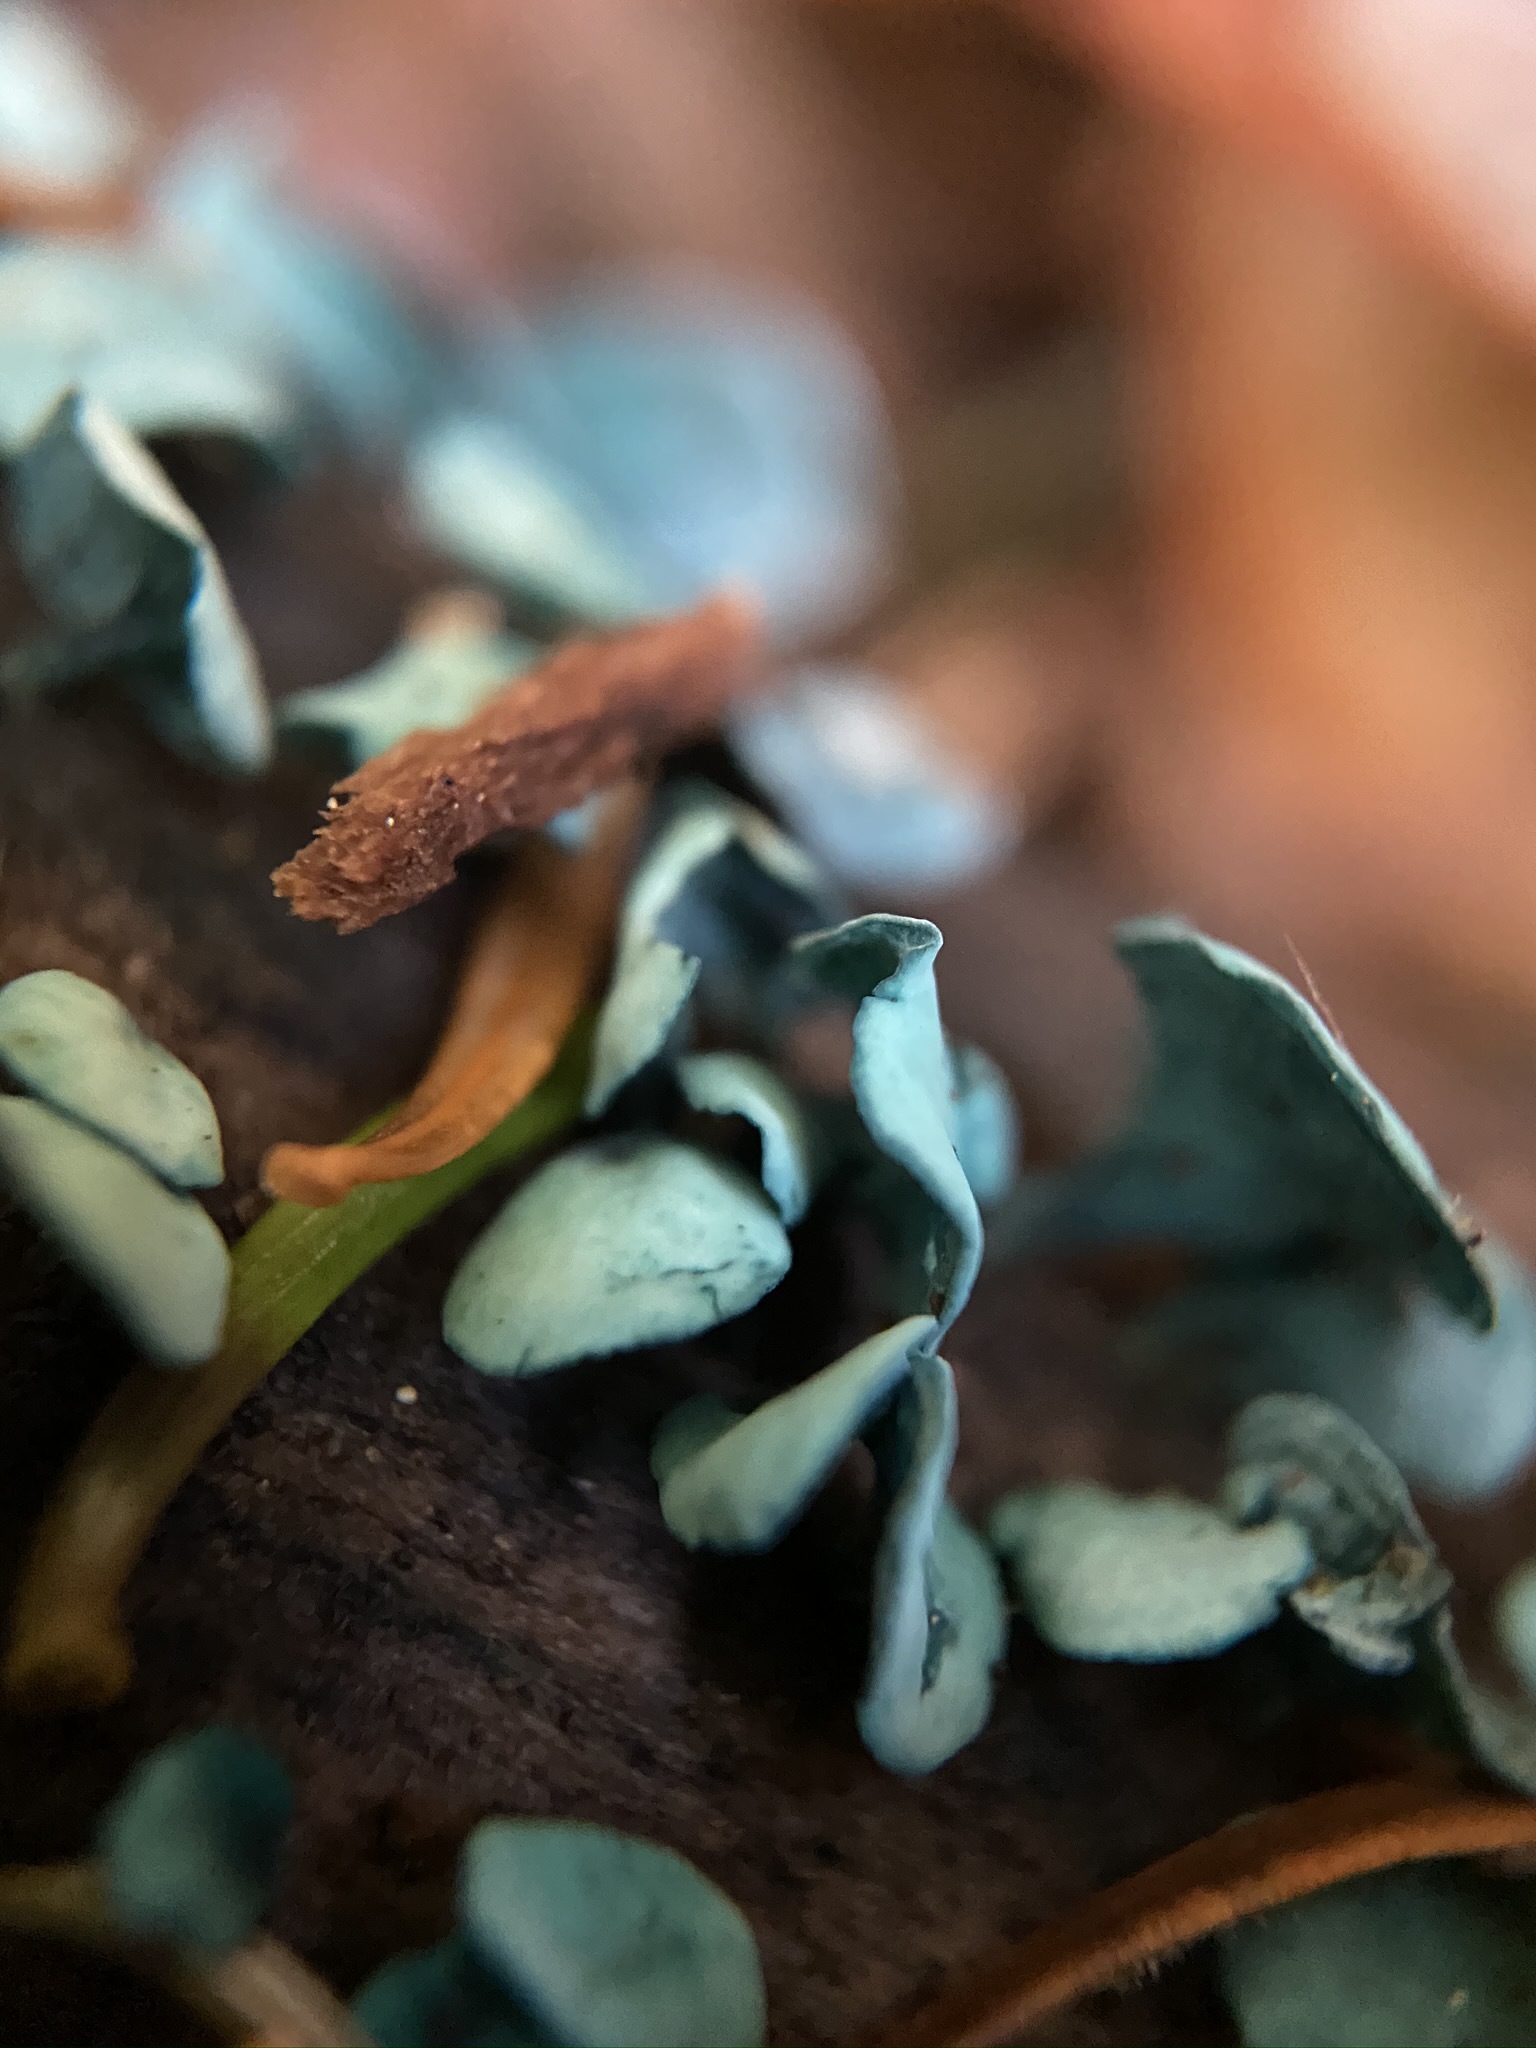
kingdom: Fungi
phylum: Ascomycota
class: Leotiomycetes
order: Helotiales
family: Chlorociboriaceae
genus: Chlorociboria
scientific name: Chlorociboria aeruginascens
